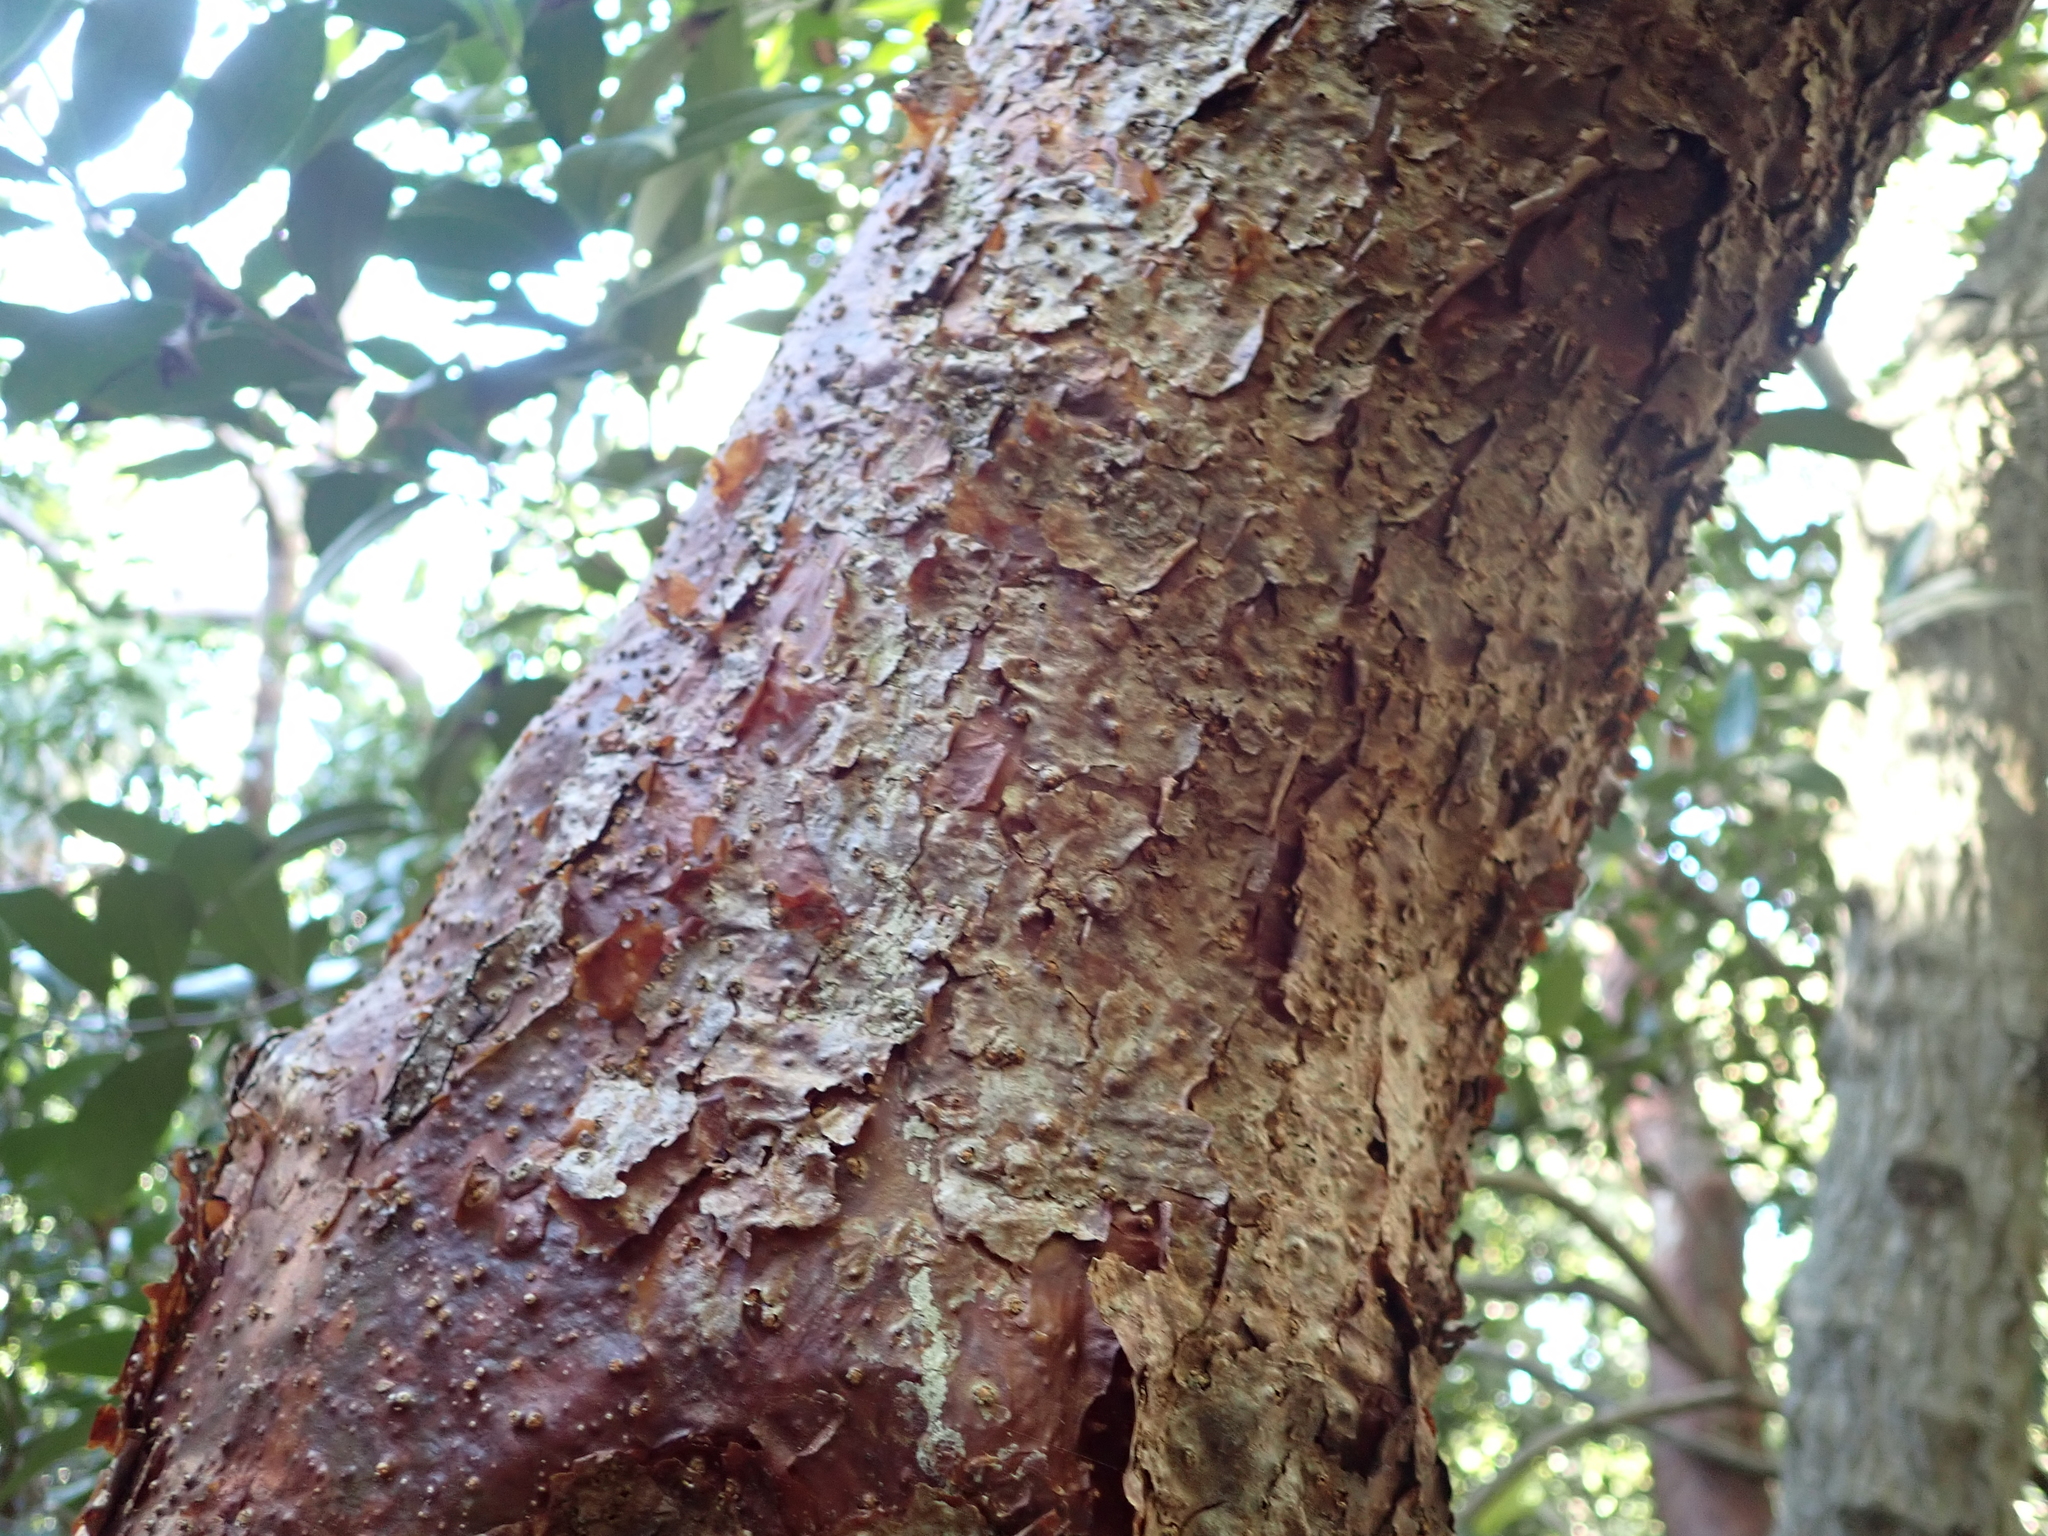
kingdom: Plantae
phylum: Tracheophyta
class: Magnoliopsida
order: Sapindales
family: Burseraceae
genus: Bursera
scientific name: Bursera simaruba
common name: Turpentine tree
